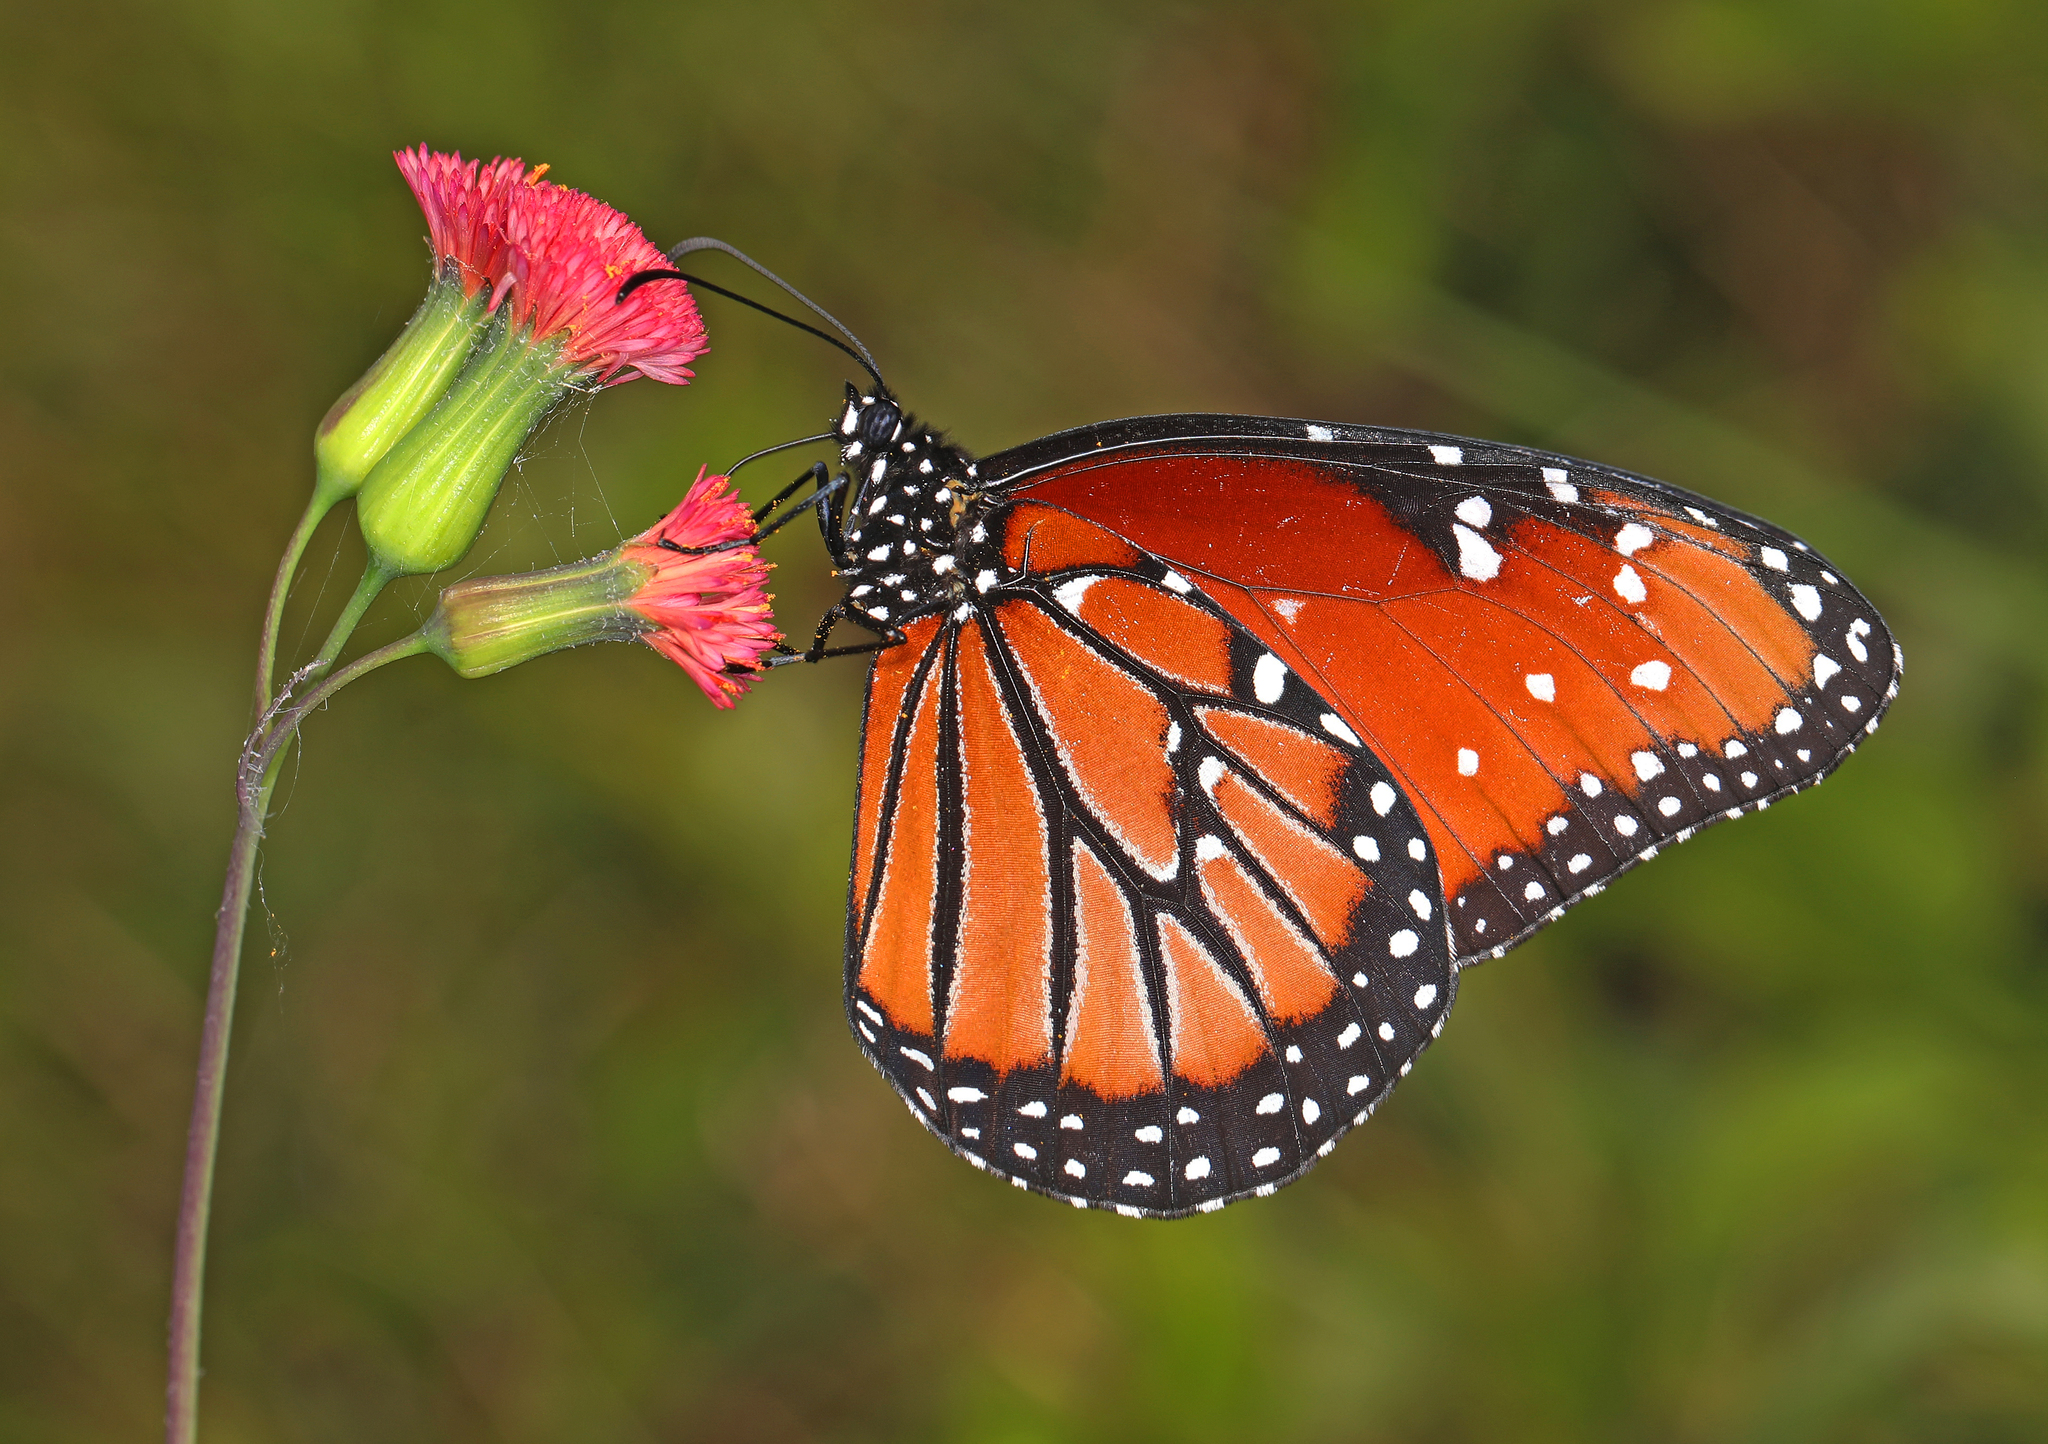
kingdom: Animalia
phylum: Arthropoda
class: Insecta
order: Lepidoptera
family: Nymphalidae
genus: Danaus
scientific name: Danaus gilippus
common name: Queen
